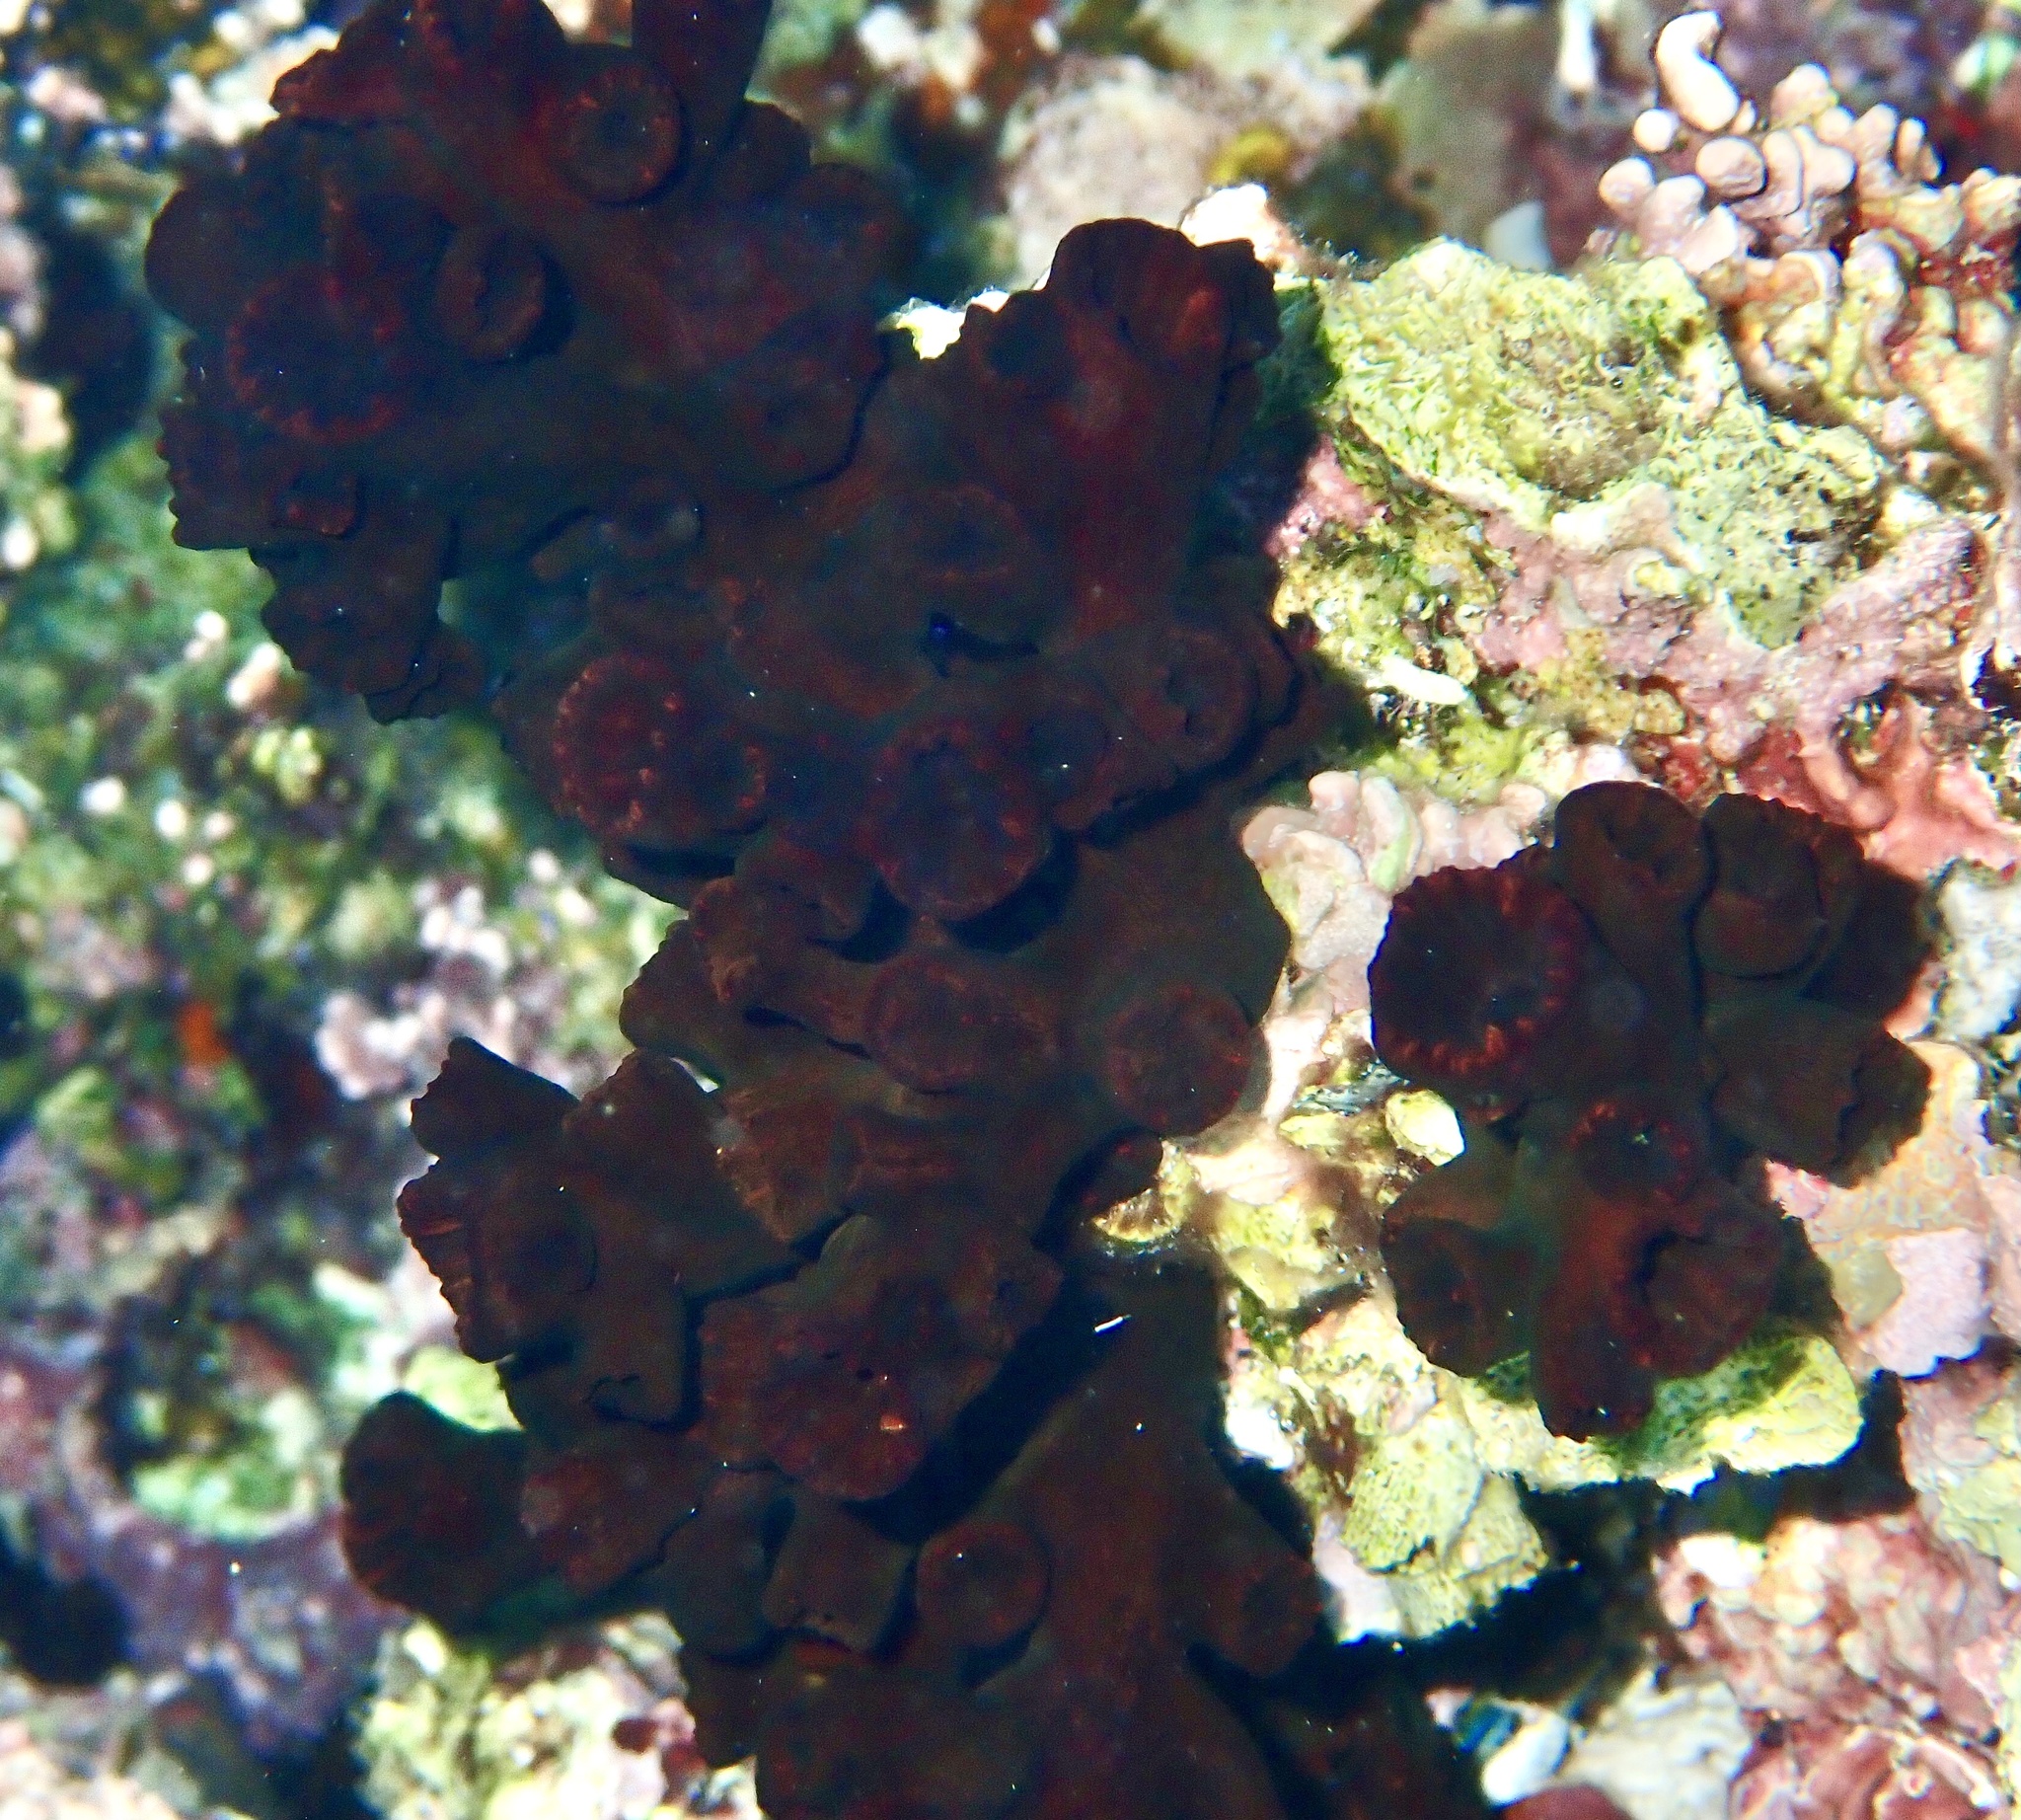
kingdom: Animalia
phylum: Cnidaria
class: Anthozoa
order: Scleractinia
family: Dendrophylliidae
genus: Tubastraea
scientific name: Tubastraea micranthus
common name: Black sun coral
